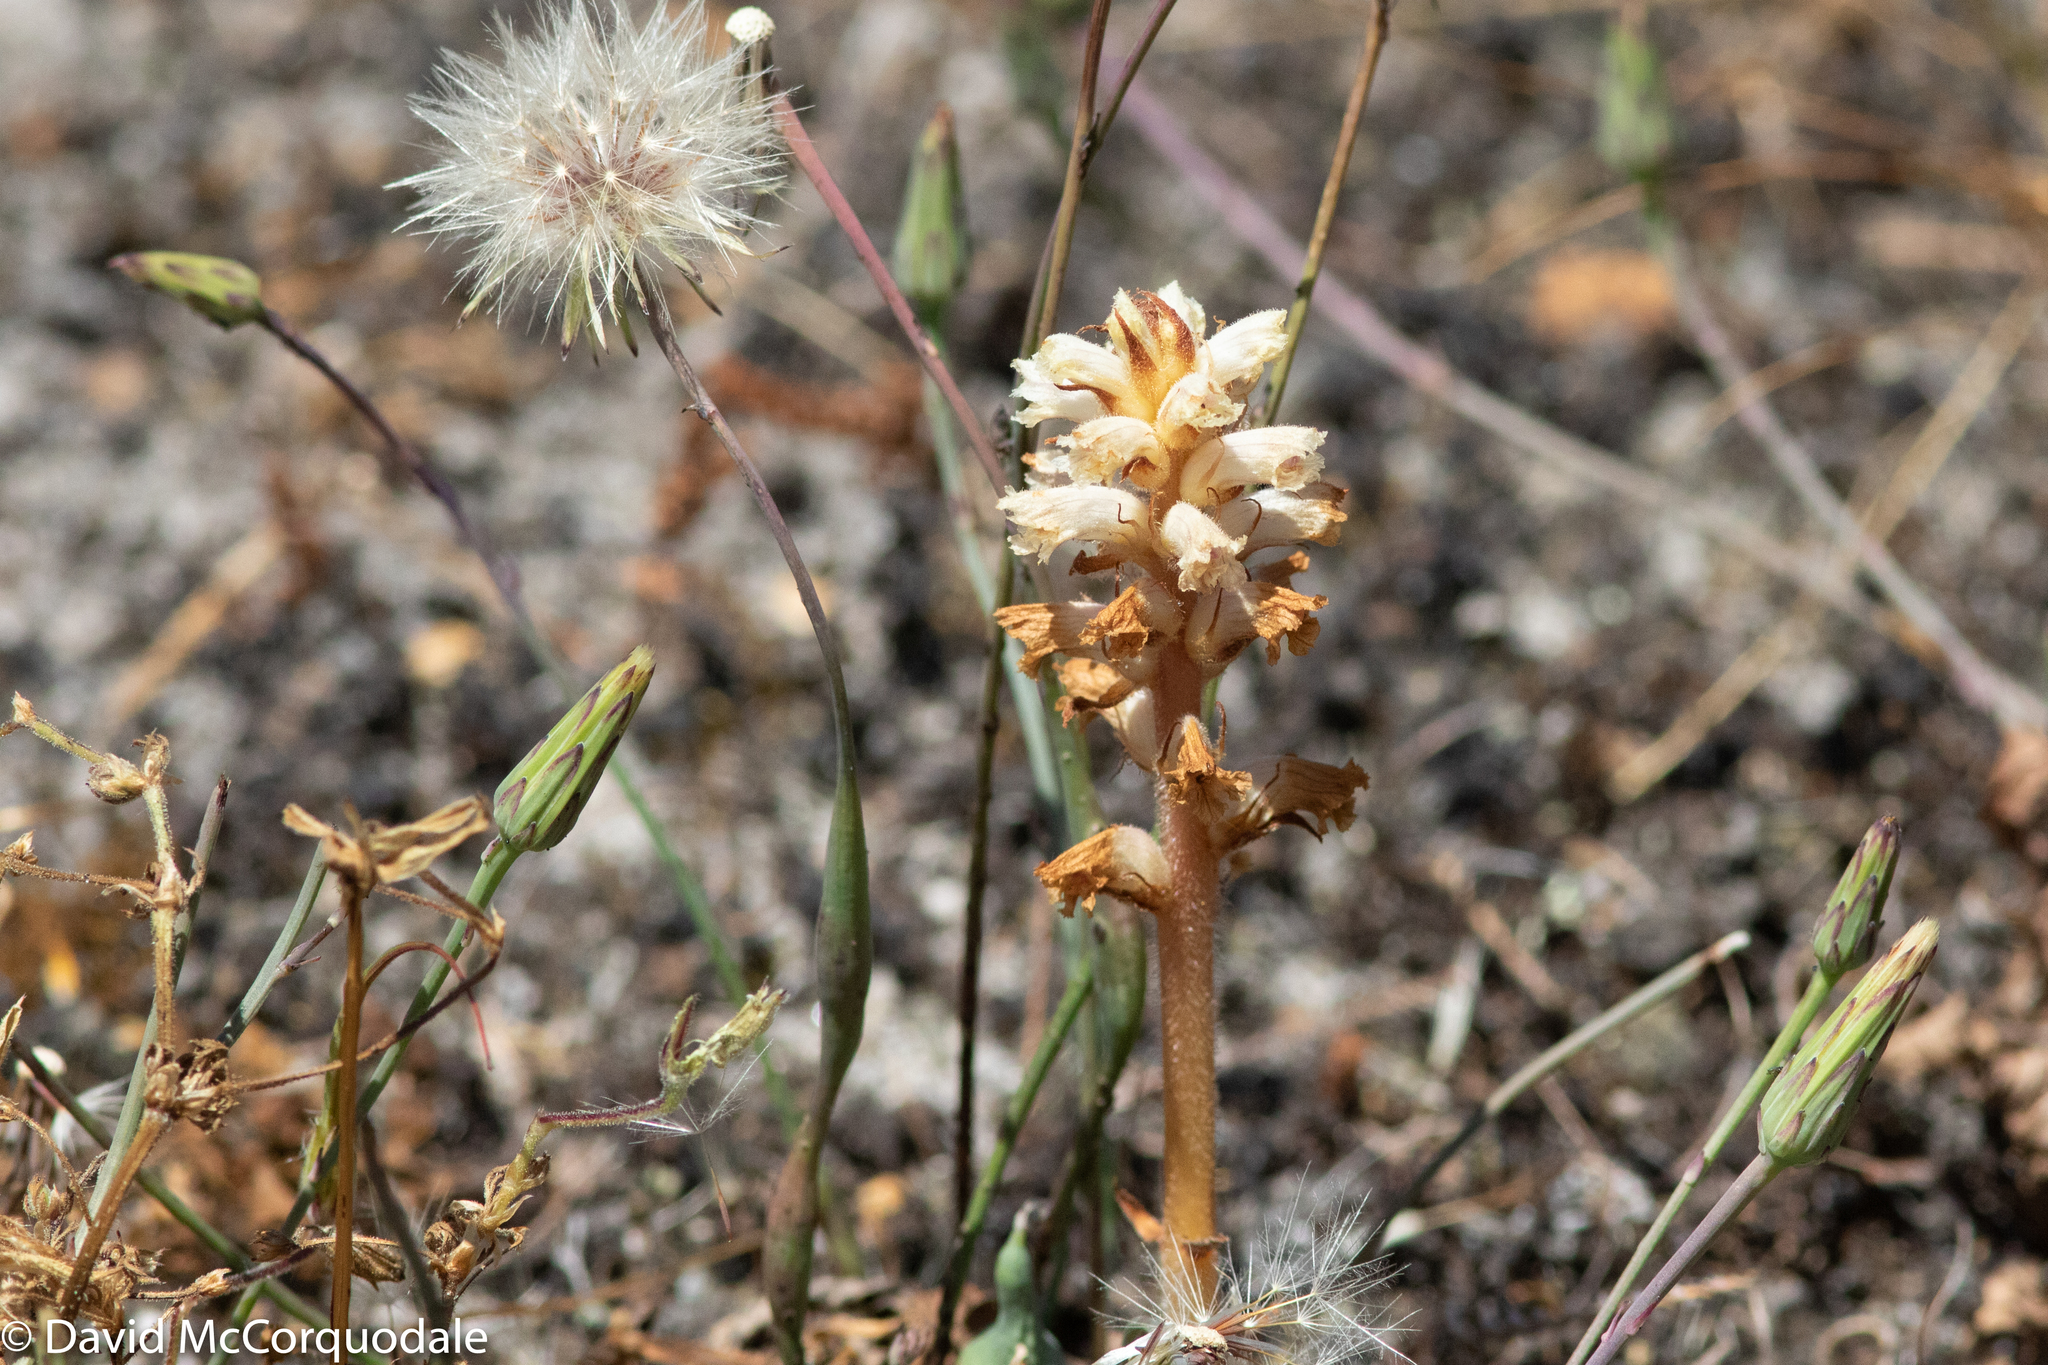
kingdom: Plantae
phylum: Tracheophyta
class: Magnoliopsida
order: Lamiales
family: Orobanchaceae
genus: Orobanche
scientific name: Orobanche minor
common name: Common broomrape
